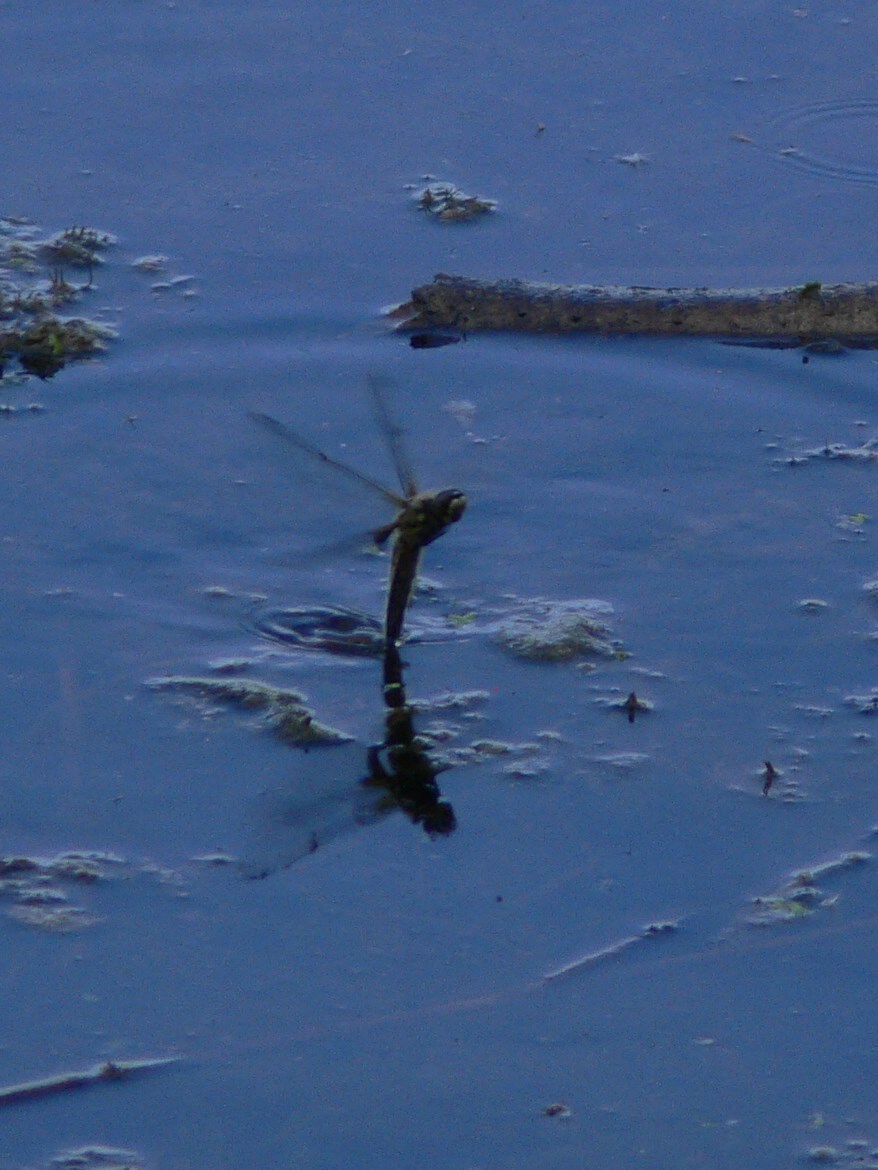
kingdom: Animalia
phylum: Arthropoda
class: Insecta
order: Odonata
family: Libellulidae
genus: Libellula
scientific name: Libellula quadrimaculata
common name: Four-spotted chaser
